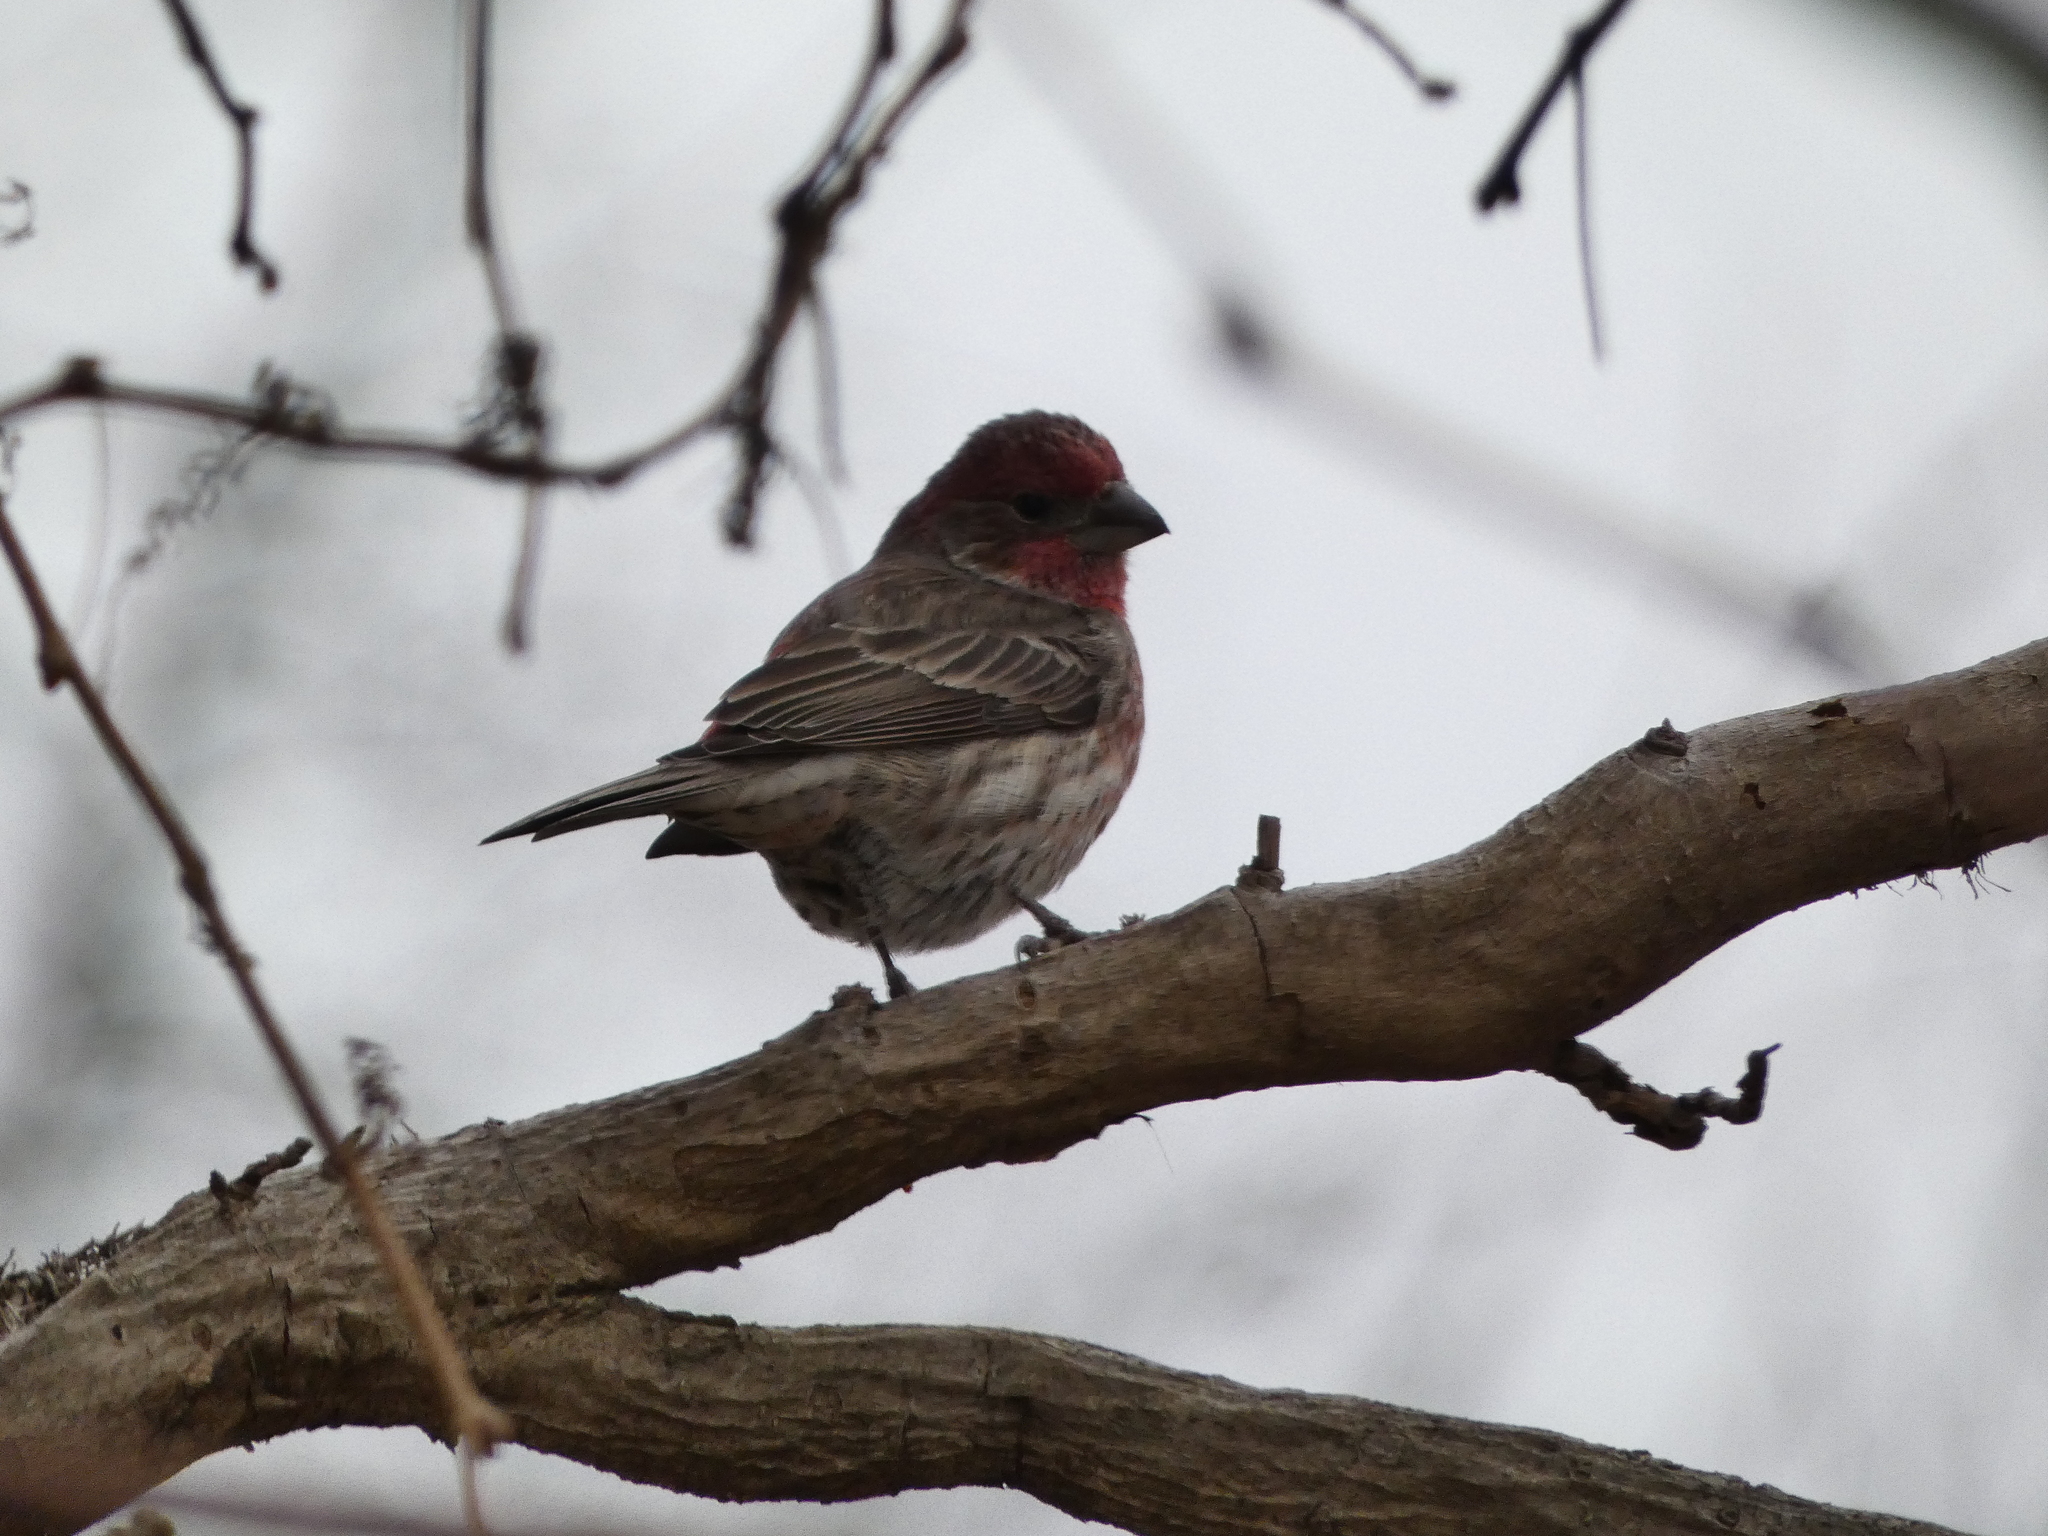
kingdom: Animalia
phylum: Chordata
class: Aves
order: Passeriformes
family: Fringillidae
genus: Haemorhous
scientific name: Haemorhous mexicanus
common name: House finch
